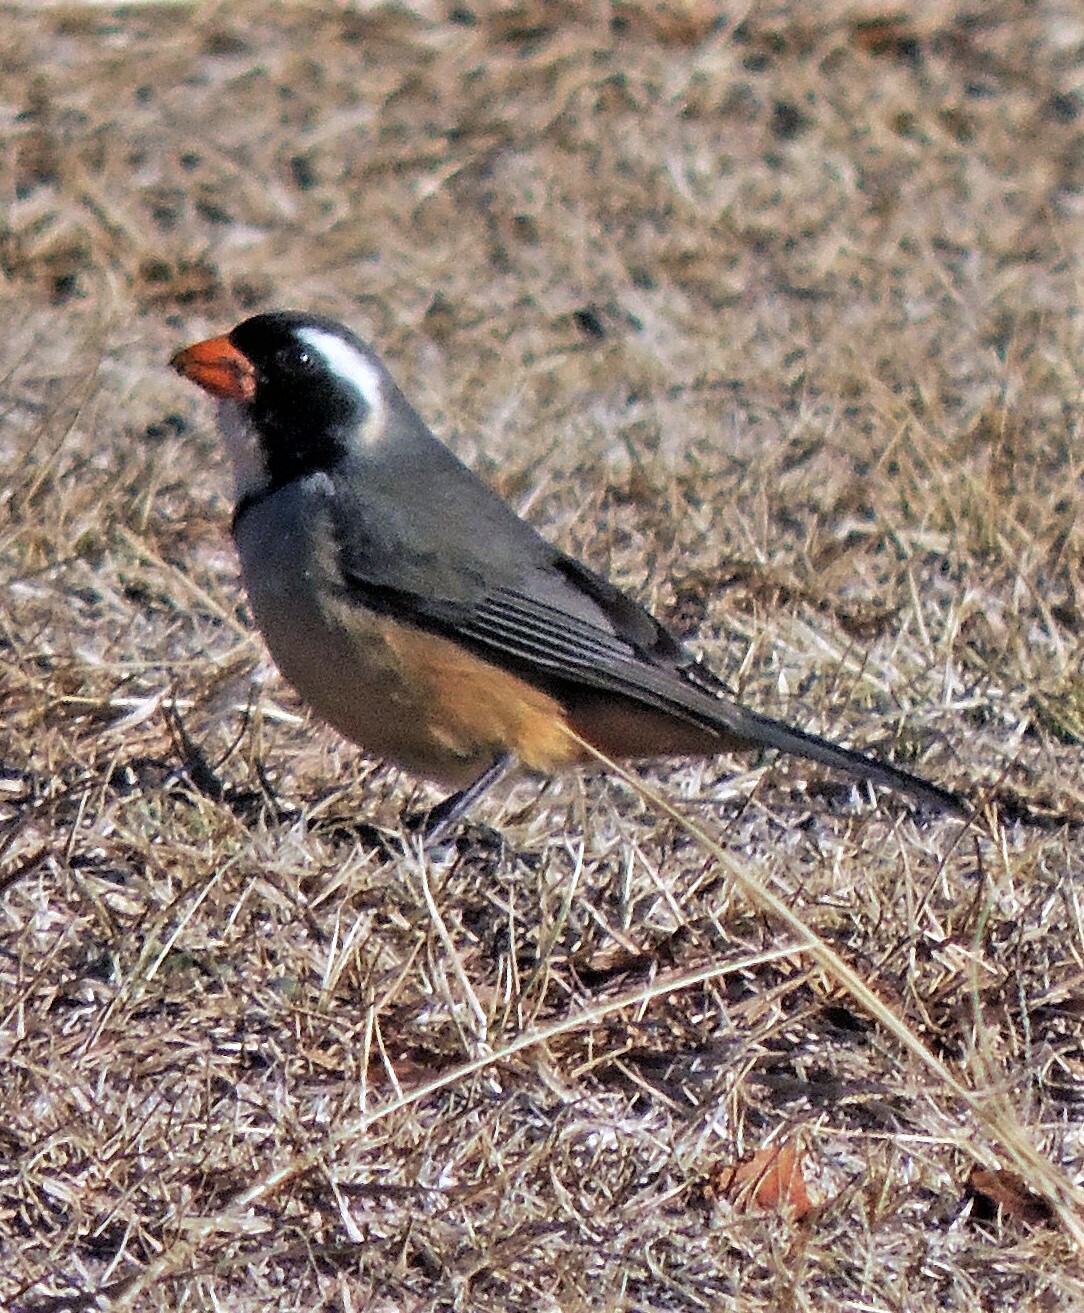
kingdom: Animalia
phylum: Chordata
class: Aves
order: Passeriformes
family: Thraupidae
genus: Saltator
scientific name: Saltator aurantiirostris
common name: Golden-billed saltator
